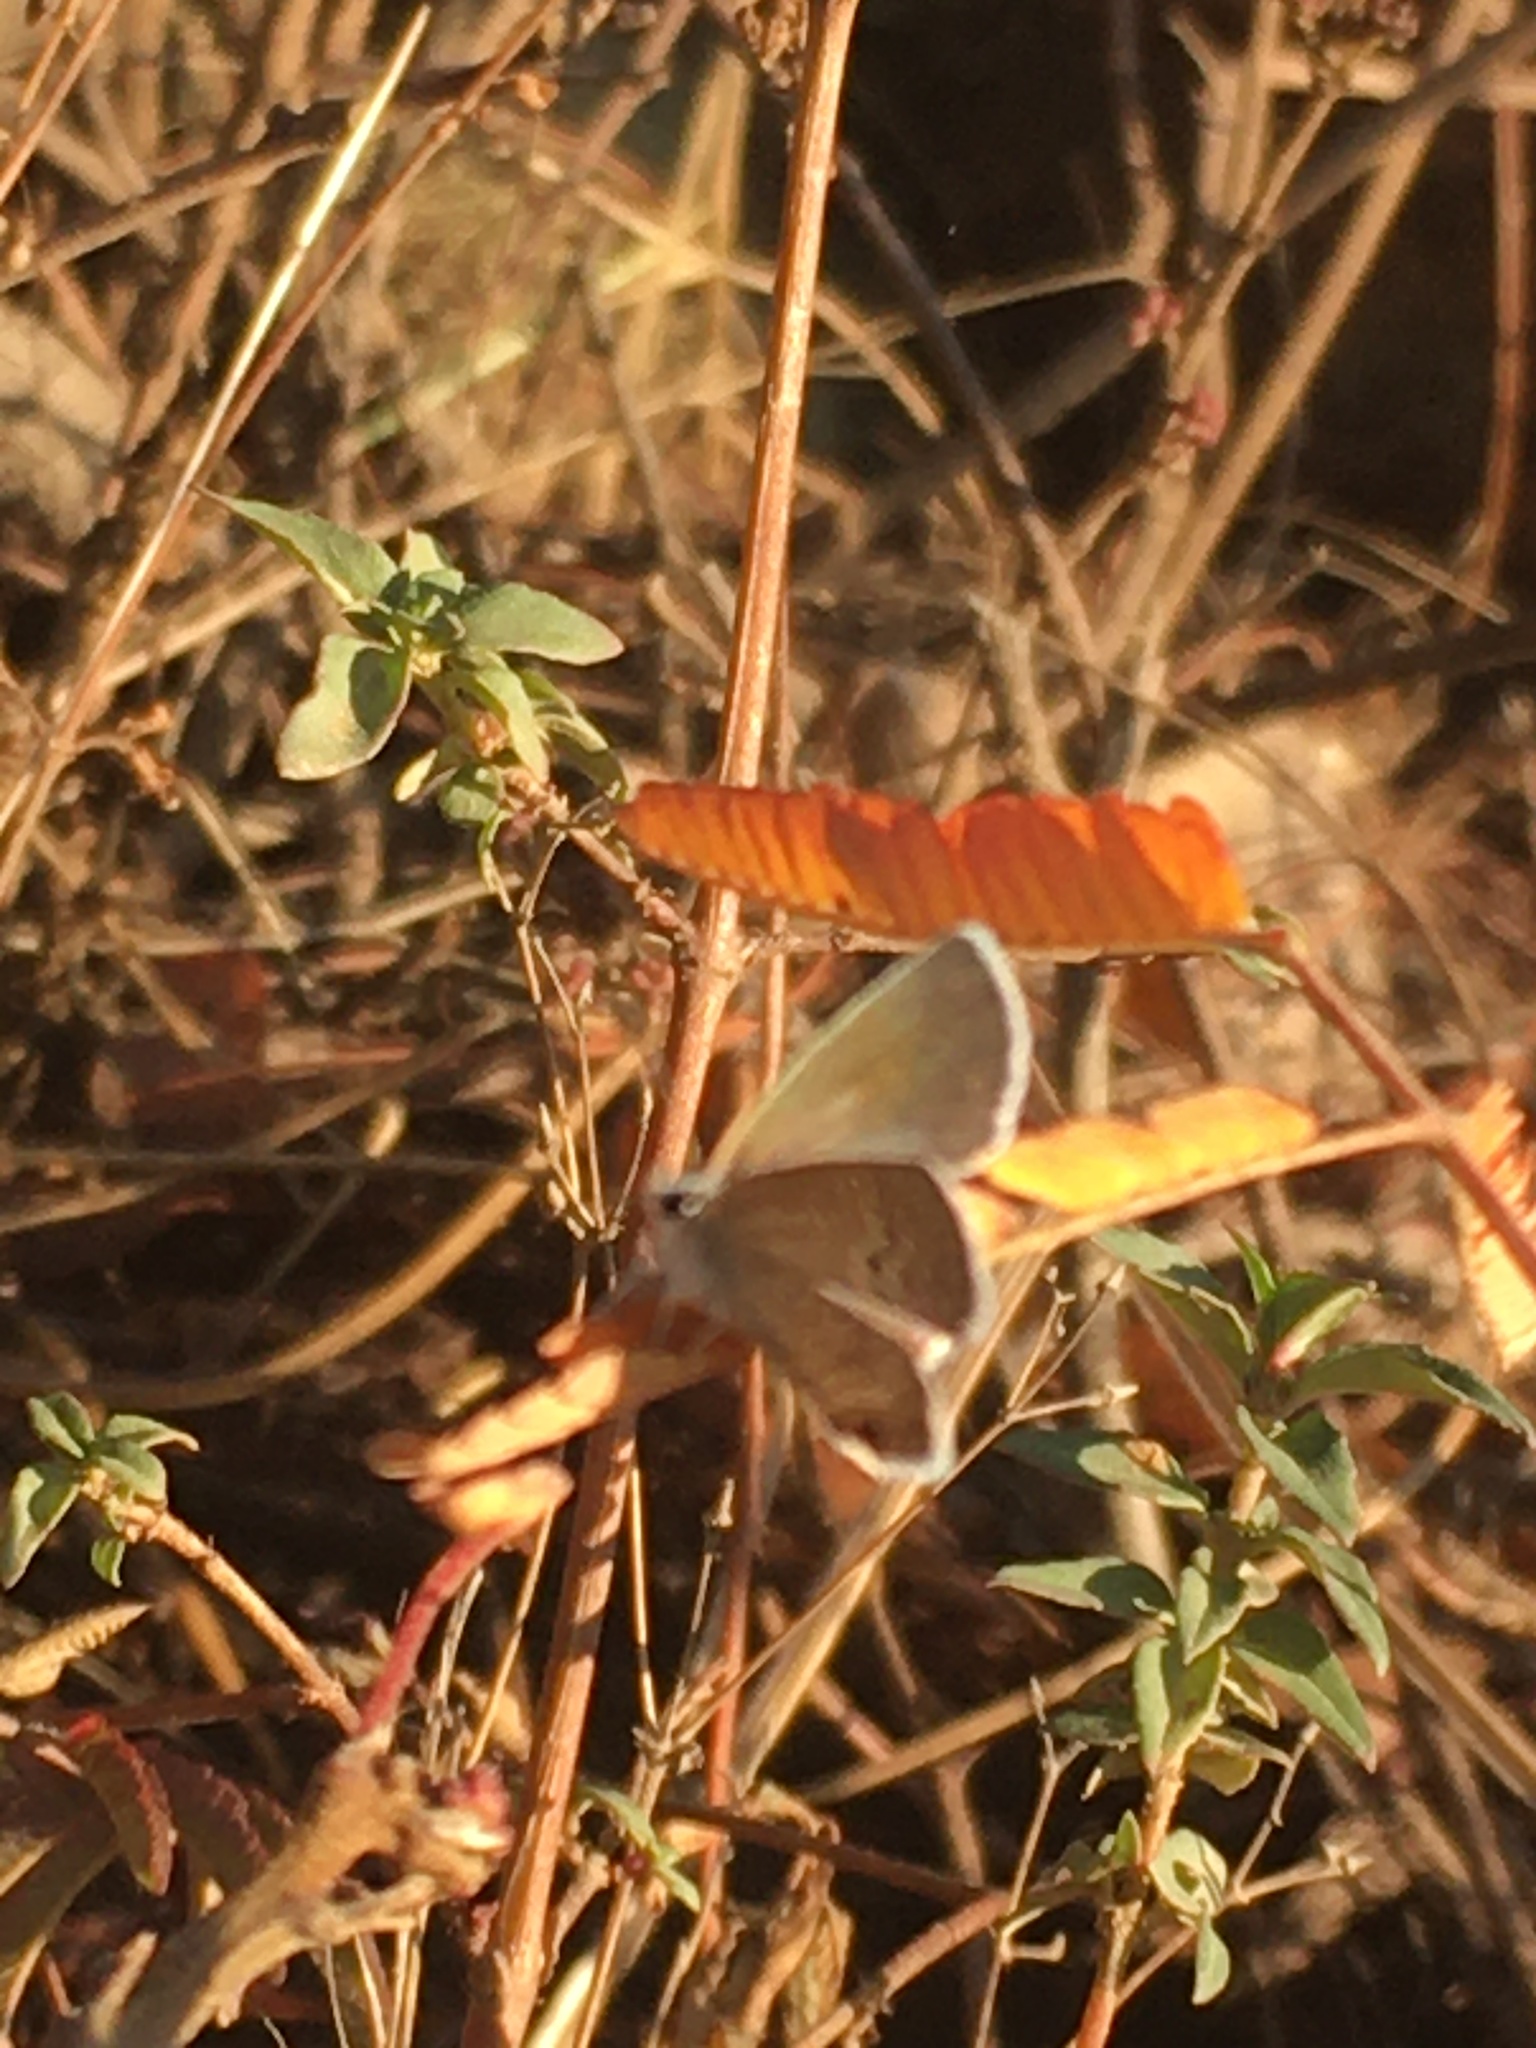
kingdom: Animalia
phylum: Arthropoda
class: Insecta
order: Lepidoptera
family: Lycaenidae
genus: Echinargus
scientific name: Echinargus isola
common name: Reakirt's blue
